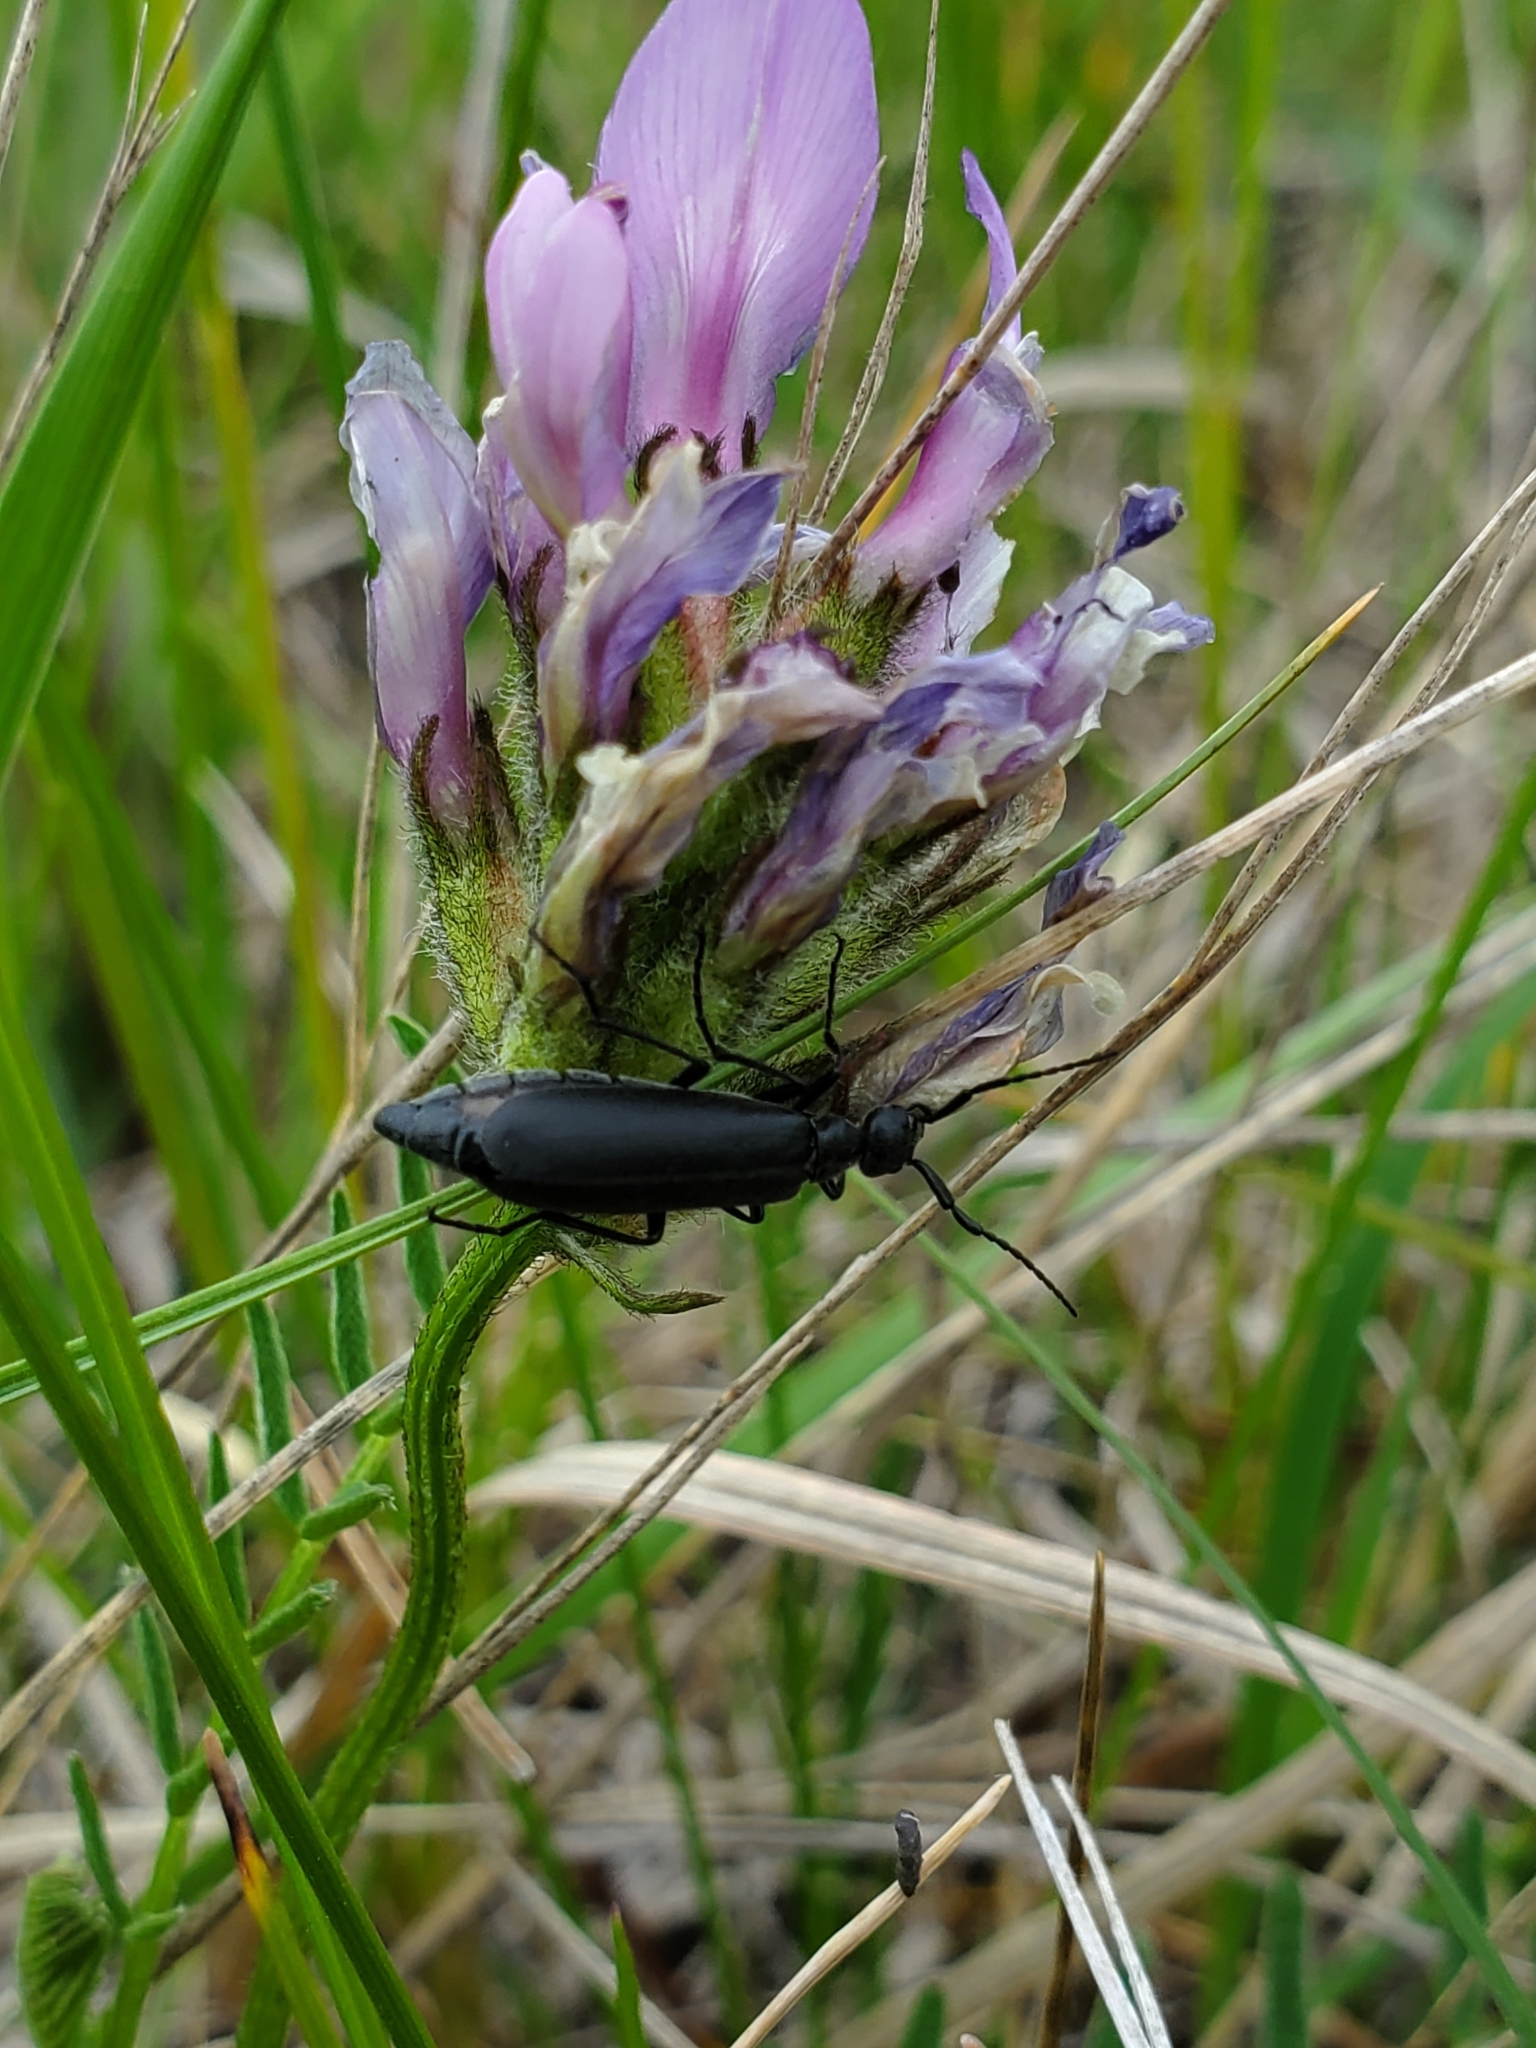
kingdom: Animalia
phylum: Arthropoda
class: Insecta
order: Coleoptera
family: Meloidae
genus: Epicauta
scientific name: Epicauta subglabra
